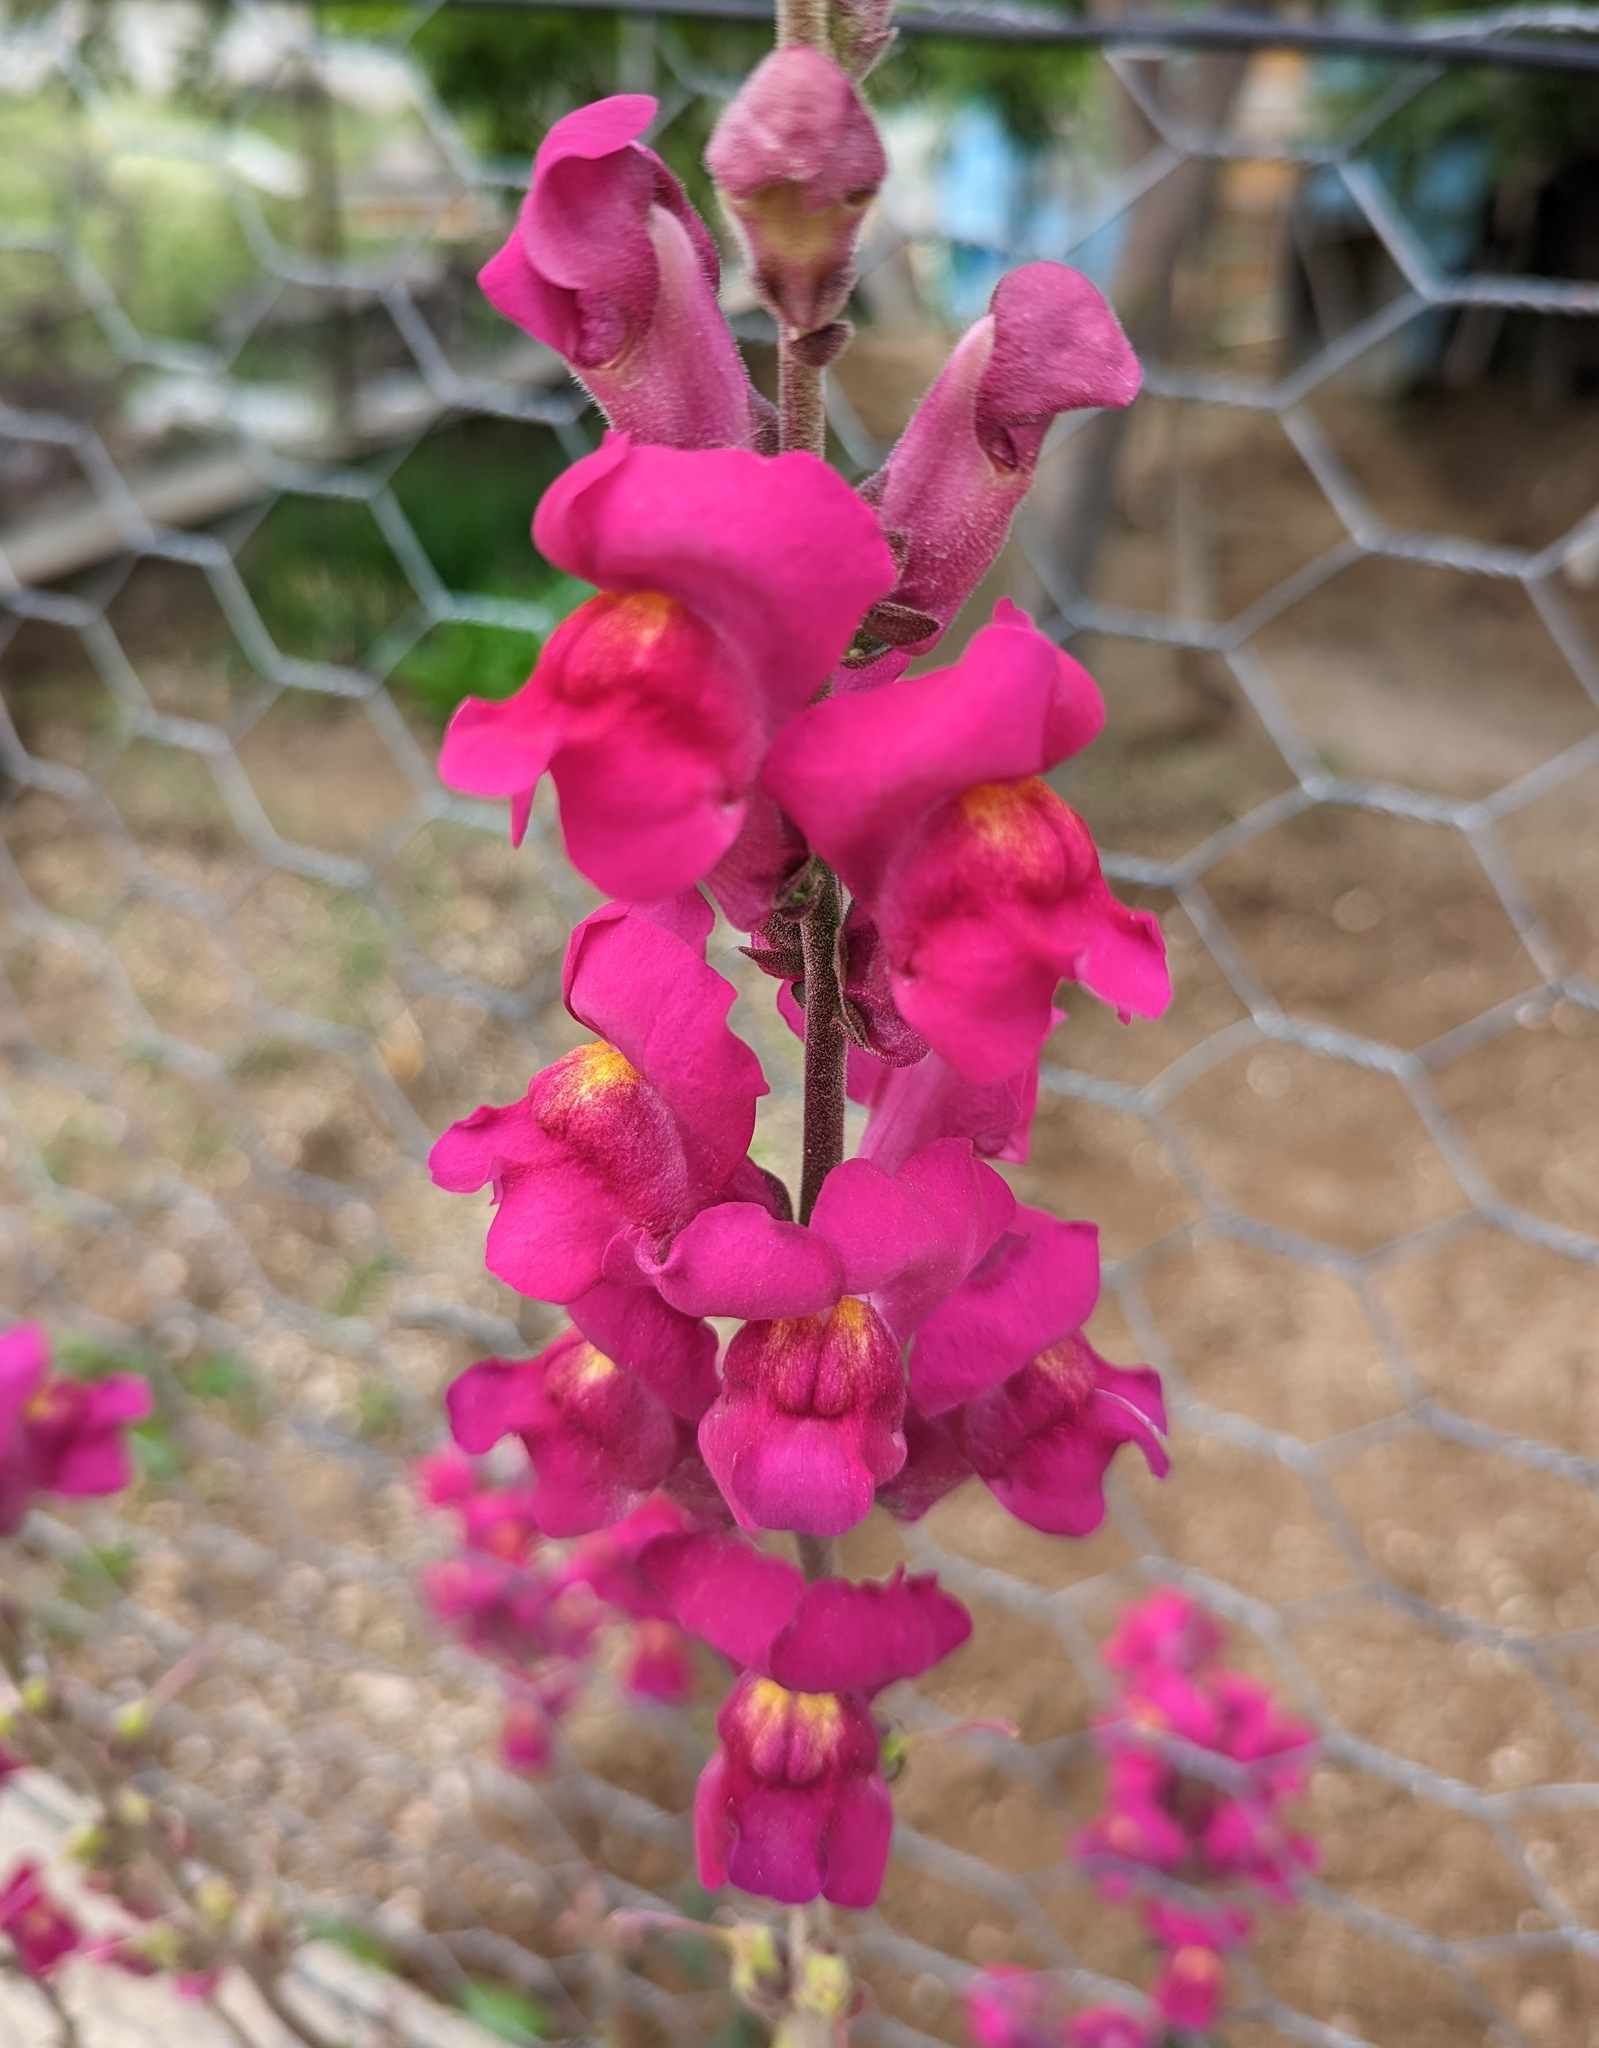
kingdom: Plantae
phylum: Tracheophyta
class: Magnoliopsida
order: Lamiales
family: Plantaginaceae
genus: Antirrhinum
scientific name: Antirrhinum majus
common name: Snapdragon
